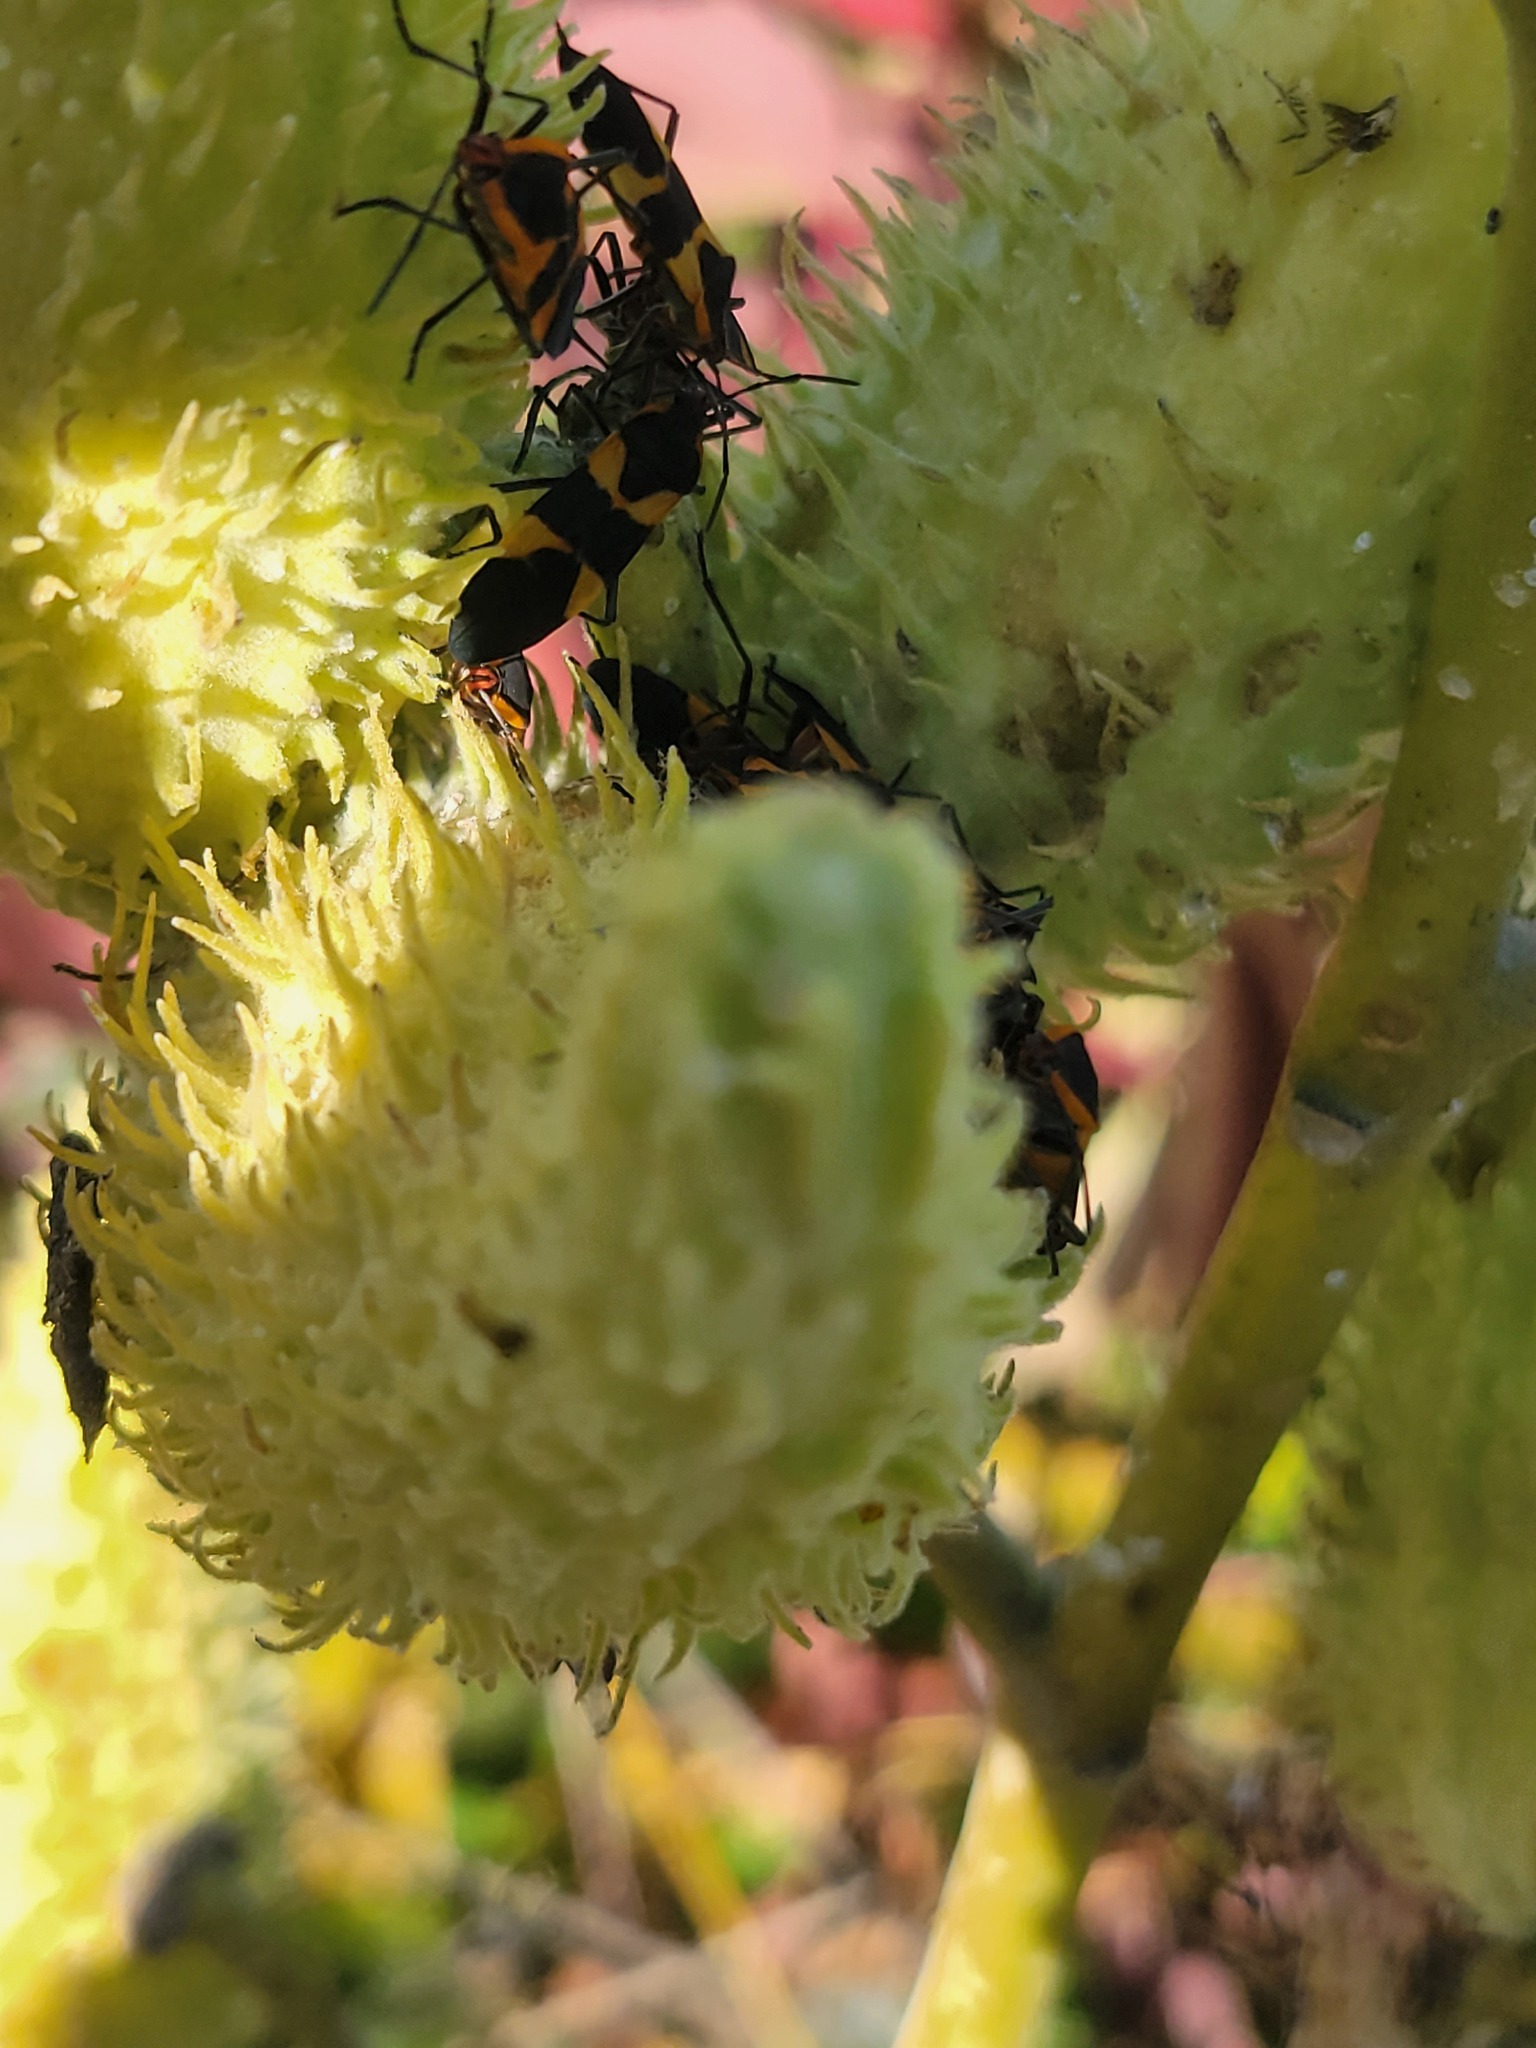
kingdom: Animalia
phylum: Arthropoda
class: Insecta
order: Hemiptera
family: Lygaeidae
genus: Oncopeltus
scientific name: Oncopeltus fasciatus
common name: Large milkweed bug
